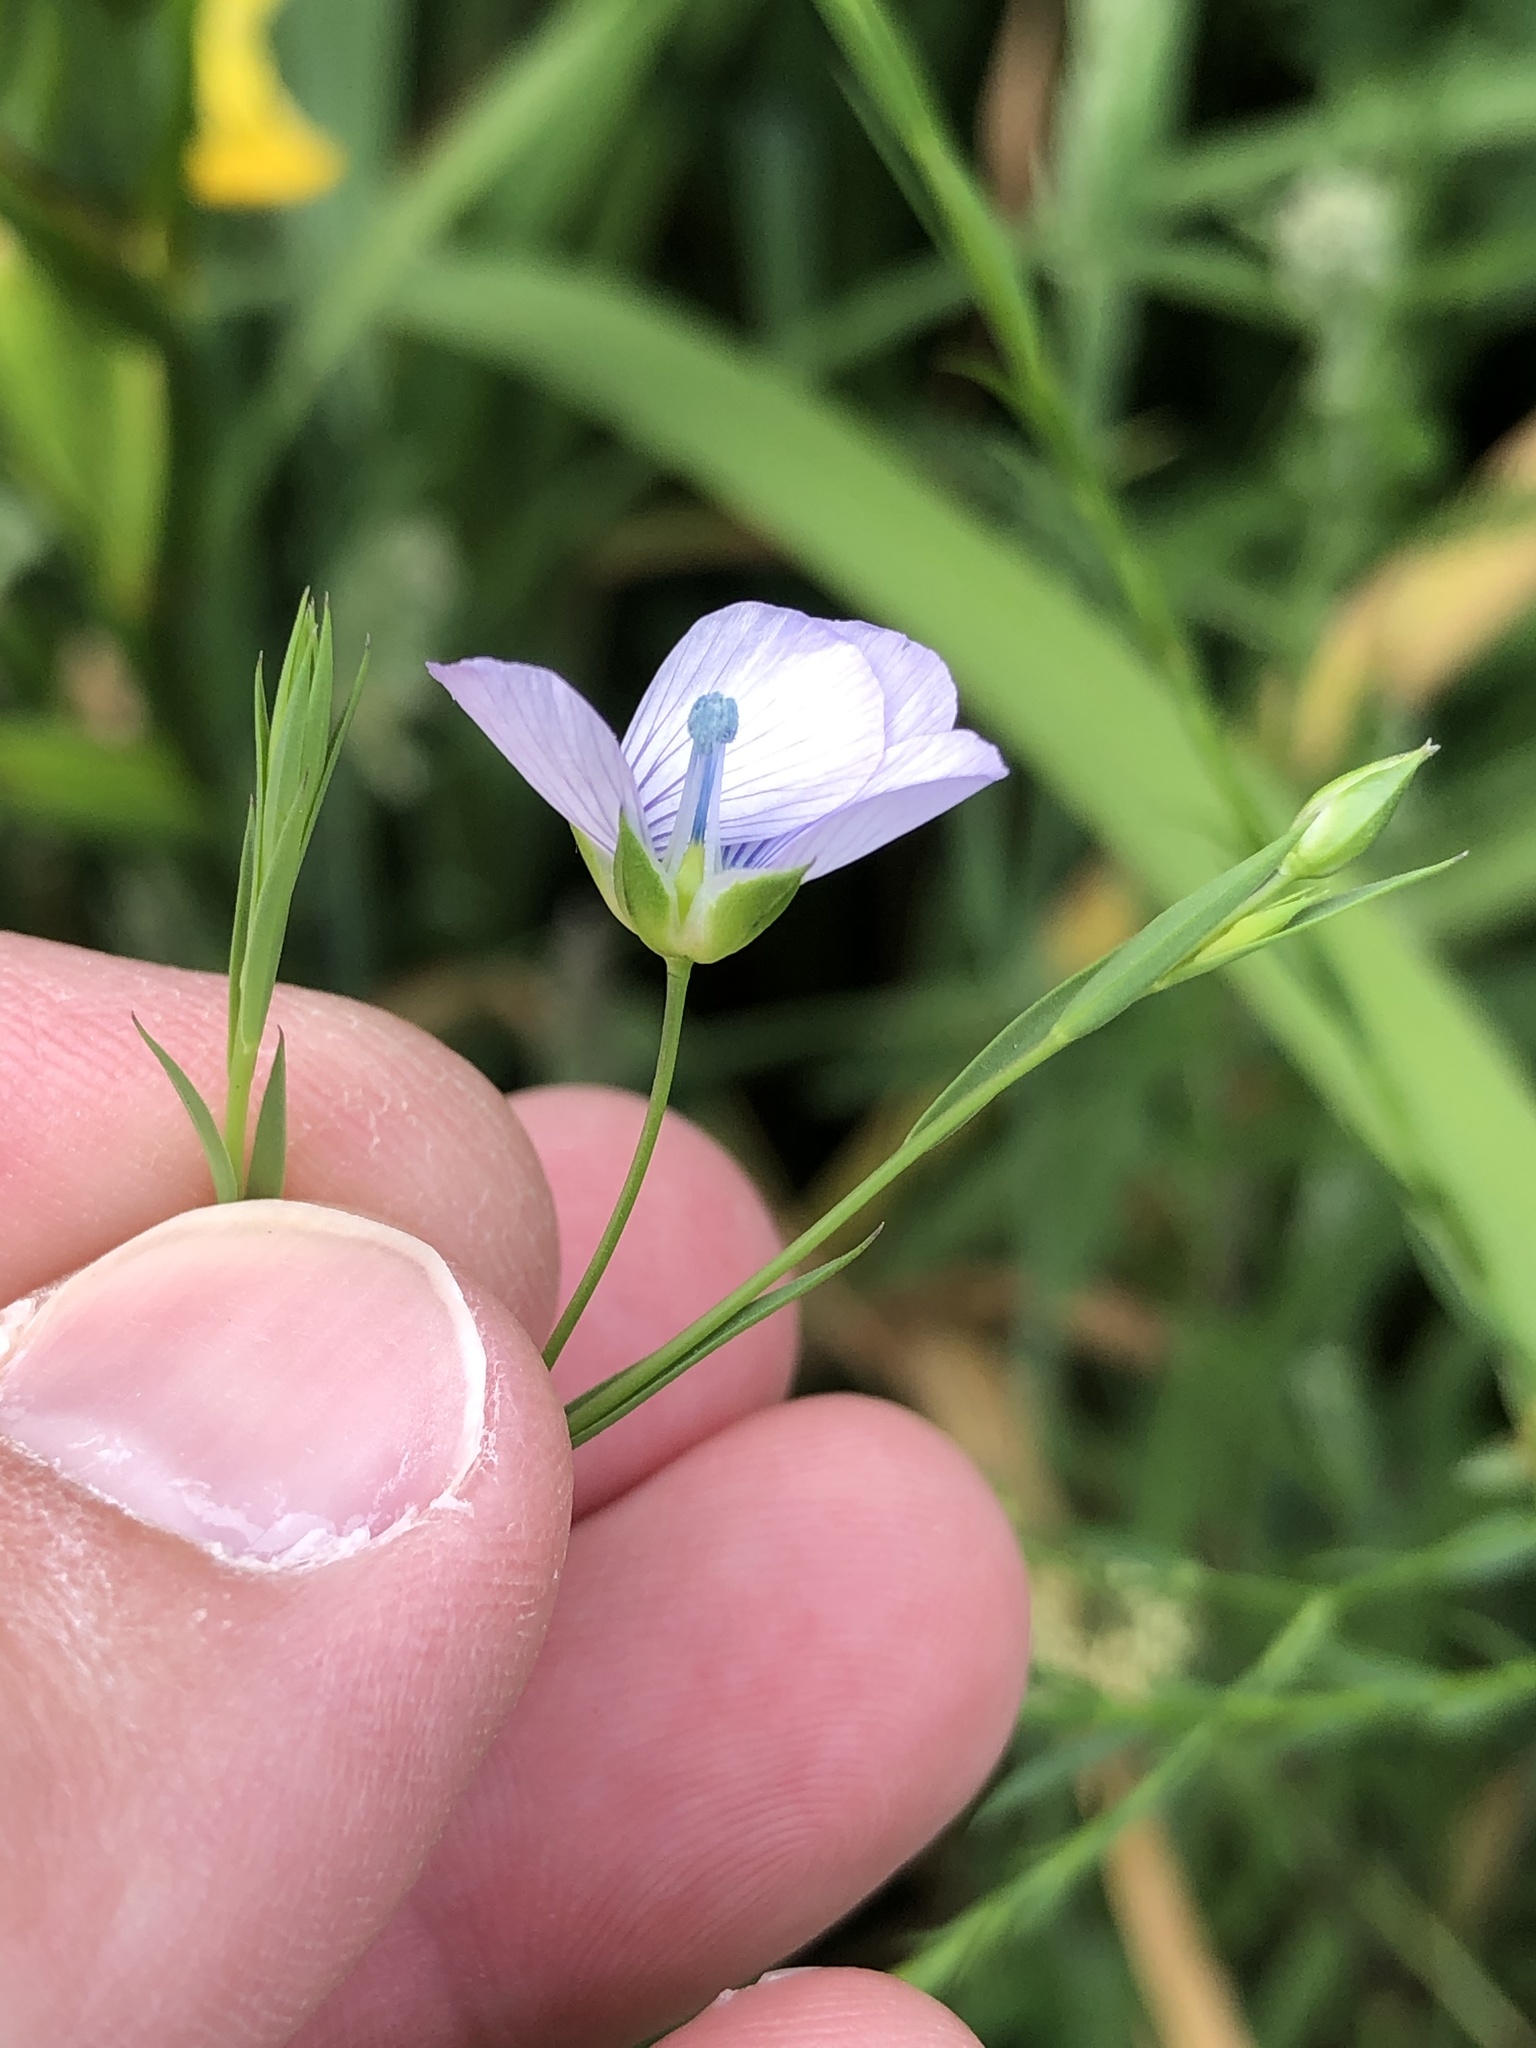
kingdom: Plantae
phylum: Tracheophyta
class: Magnoliopsida
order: Malpighiales
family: Linaceae
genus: Linum
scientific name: Linum bienne
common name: Pale flax
